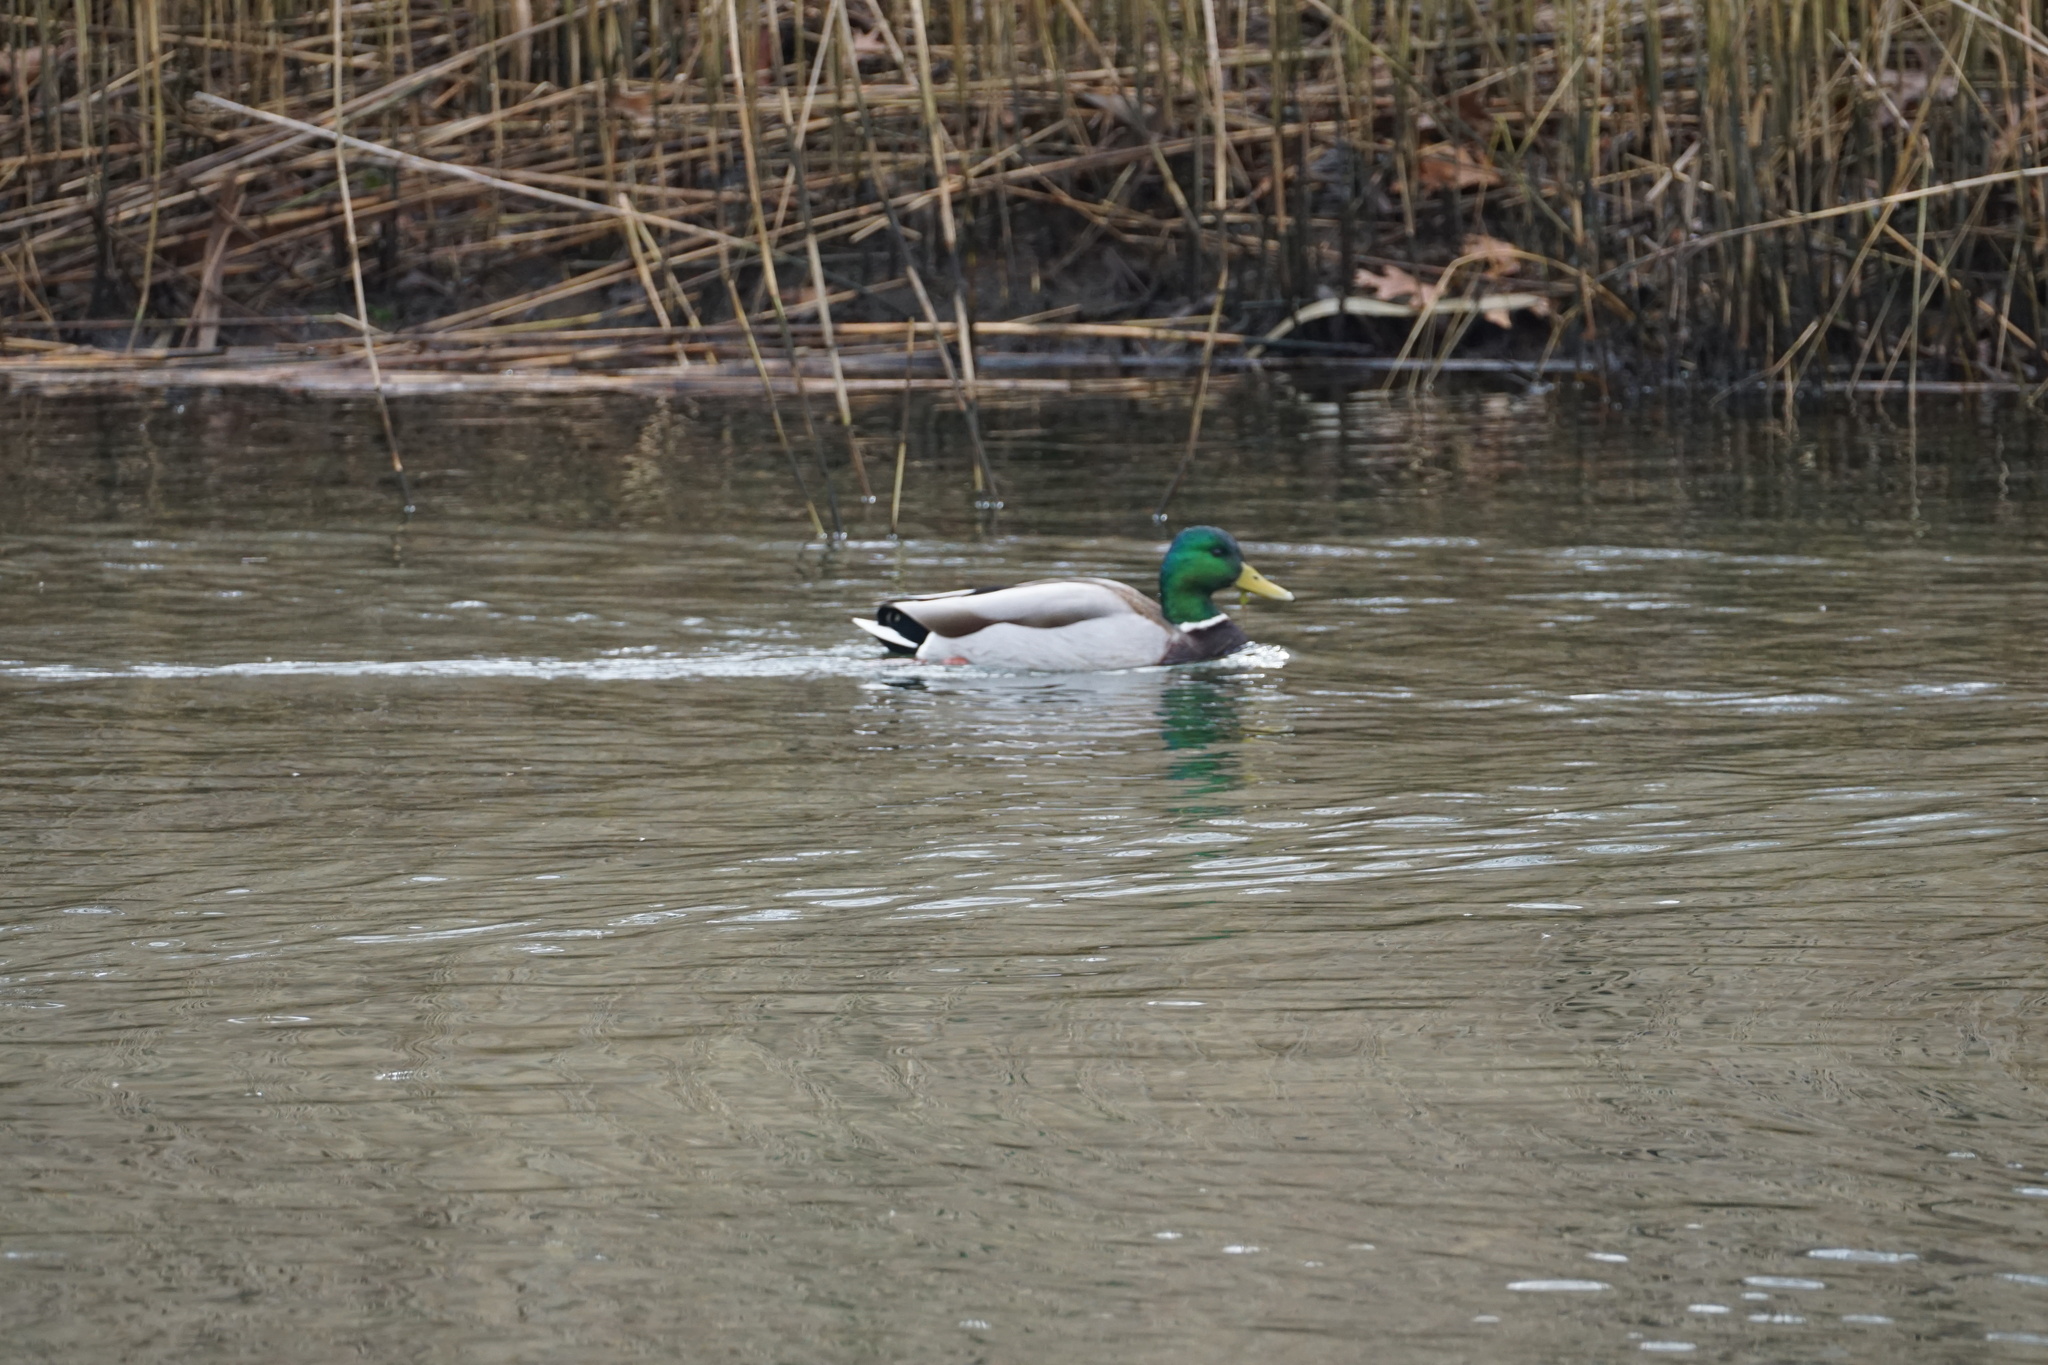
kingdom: Animalia
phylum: Chordata
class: Aves
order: Anseriformes
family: Anatidae
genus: Anas
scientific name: Anas platyrhynchos
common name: Mallard
